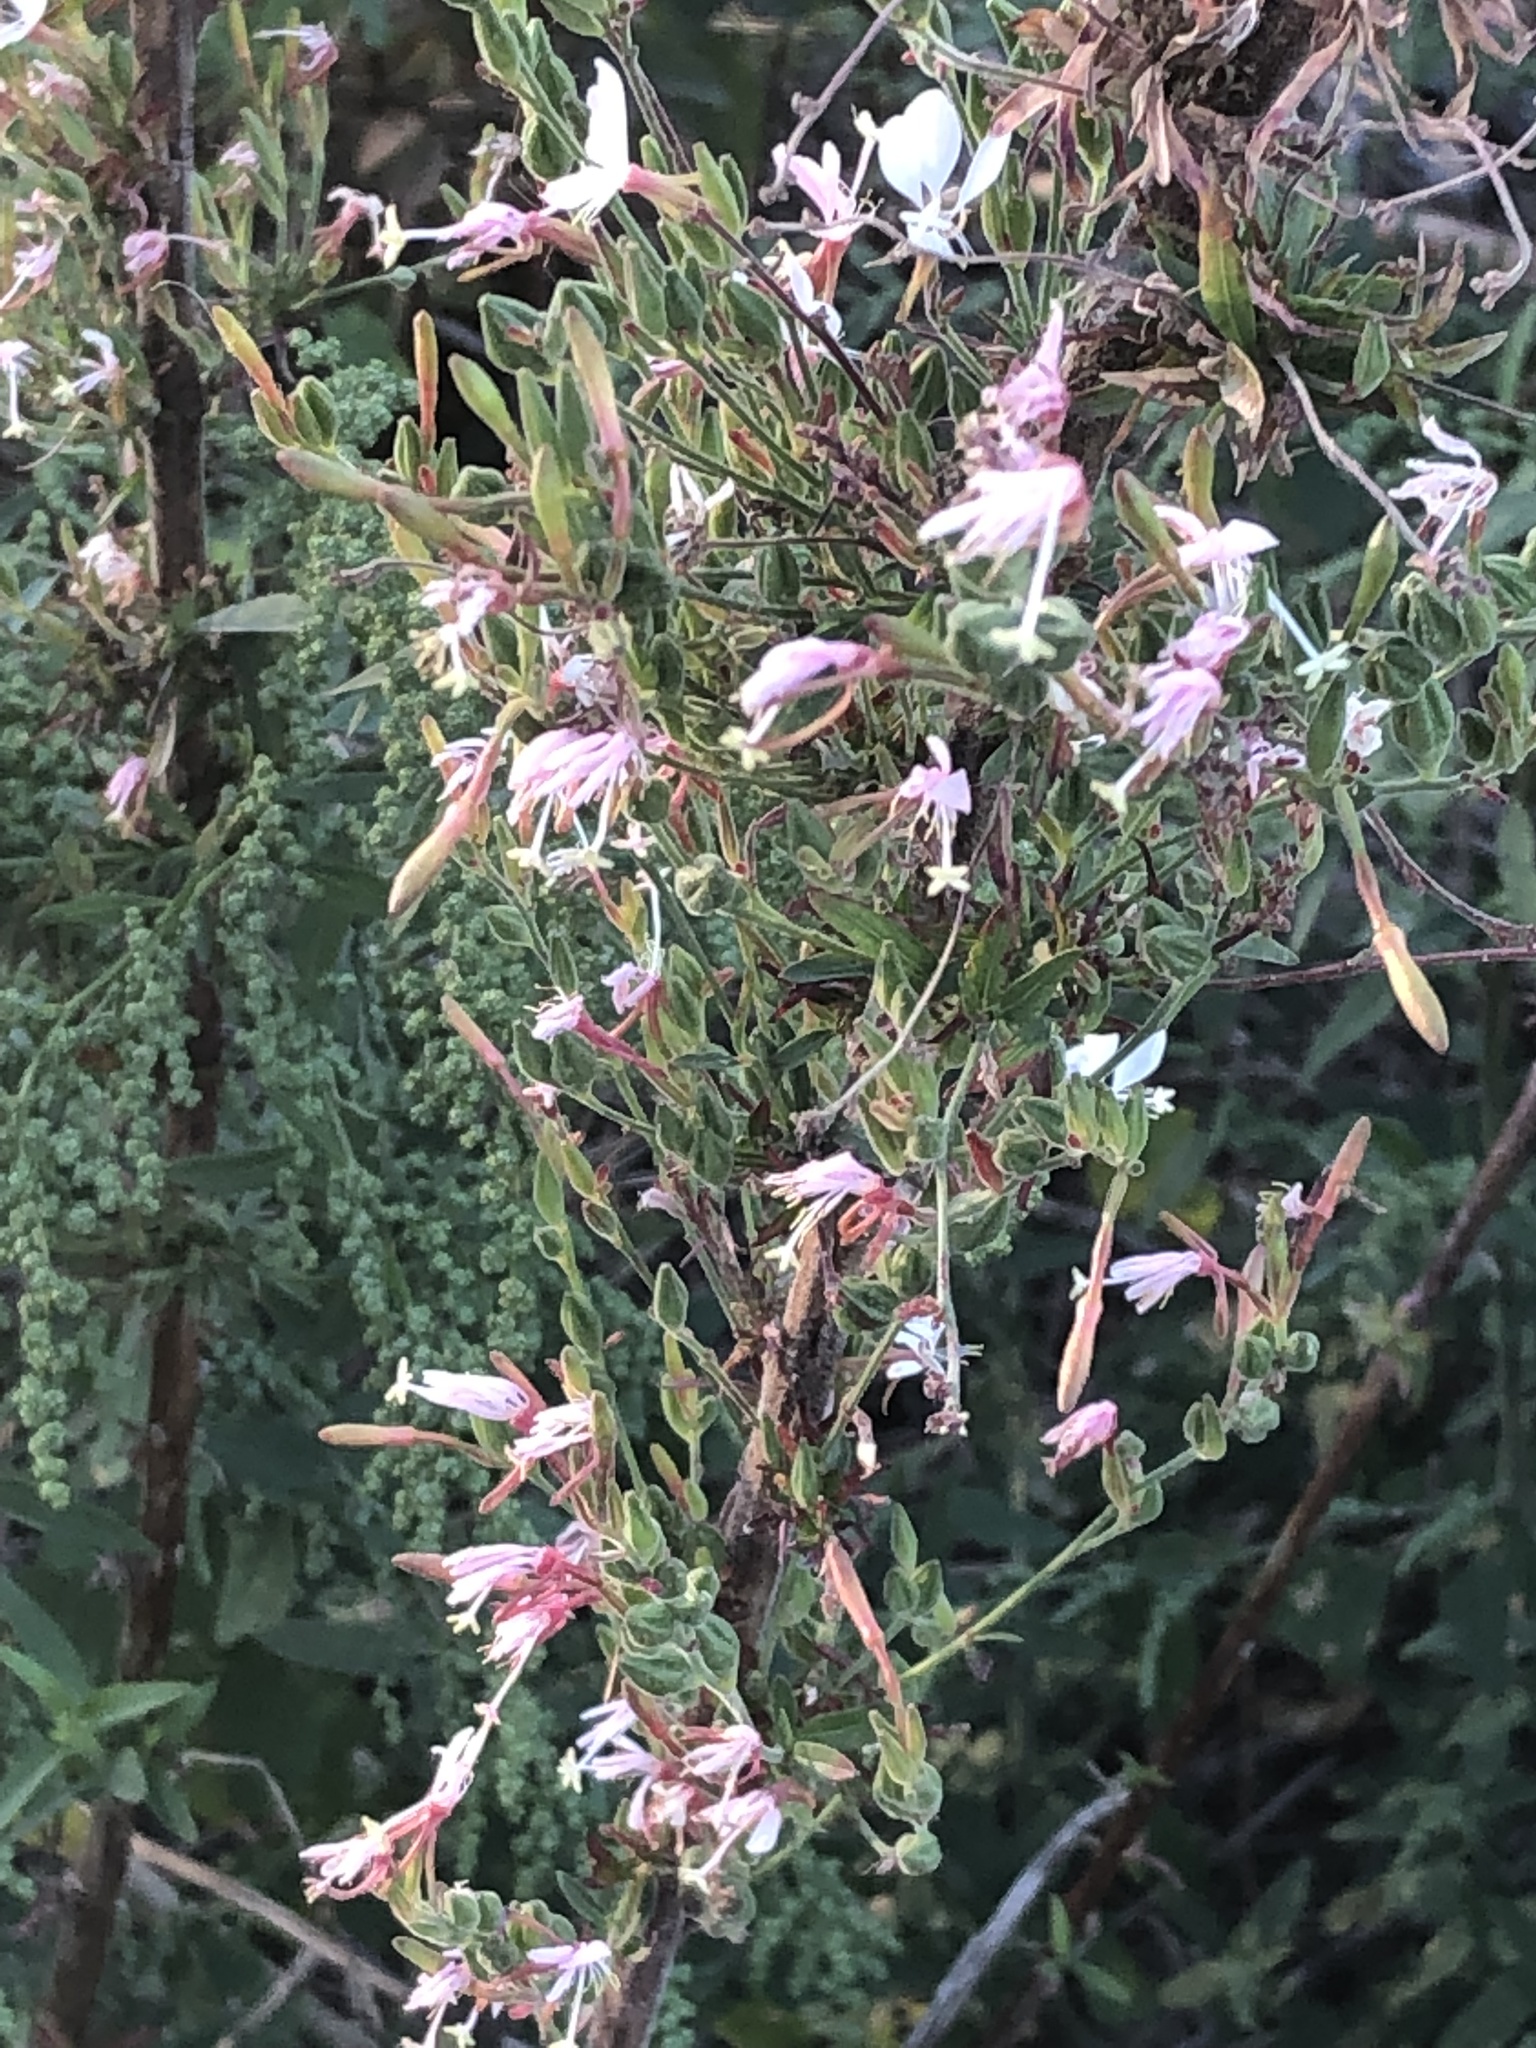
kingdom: Plantae
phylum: Tracheophyta
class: Magnoliopsida
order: Myrtales
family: Onagraceae
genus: Oenothera
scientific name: Oenothera gaura
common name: Biennial beeblossom
